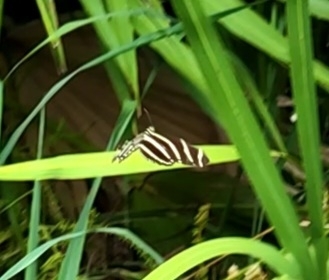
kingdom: Animalia
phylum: Arthropoda
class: Insecta
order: Lepidoptera
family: Nymphalidae
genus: Heliconius
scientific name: Heliconius charithonia
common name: Zebra long wing
